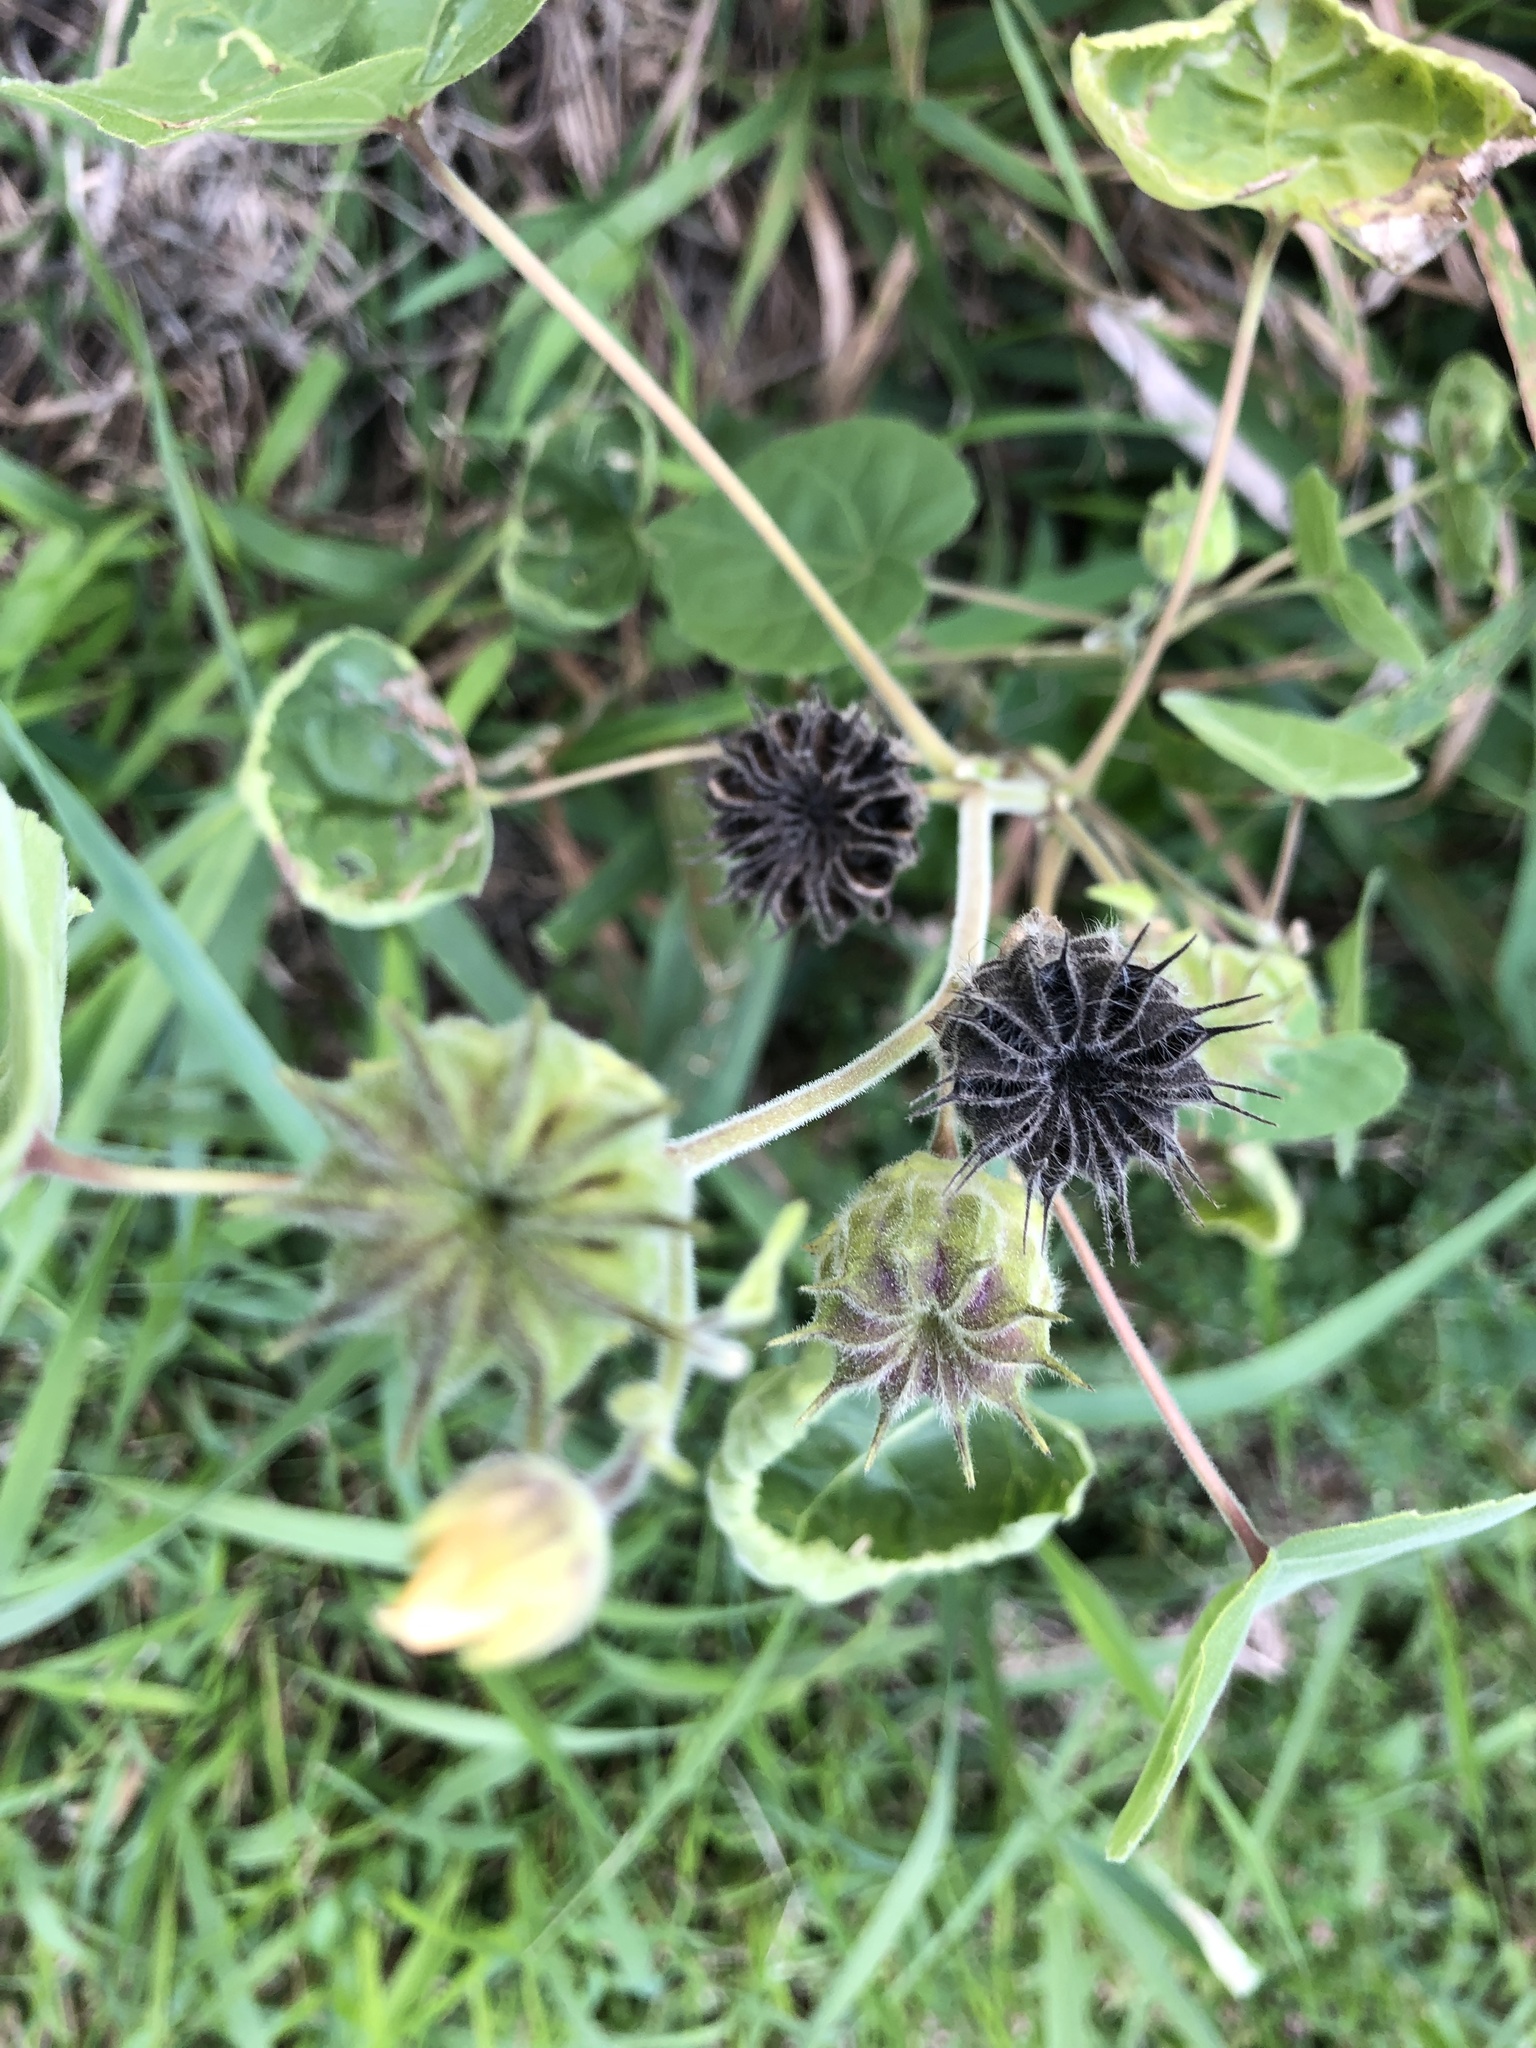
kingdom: Plantae
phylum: Tracheophyta
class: Magnoliopsida
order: Malvales
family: Malvaceae
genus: Abutilon
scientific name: Abutilon theophrasti
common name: Velvetleaf
